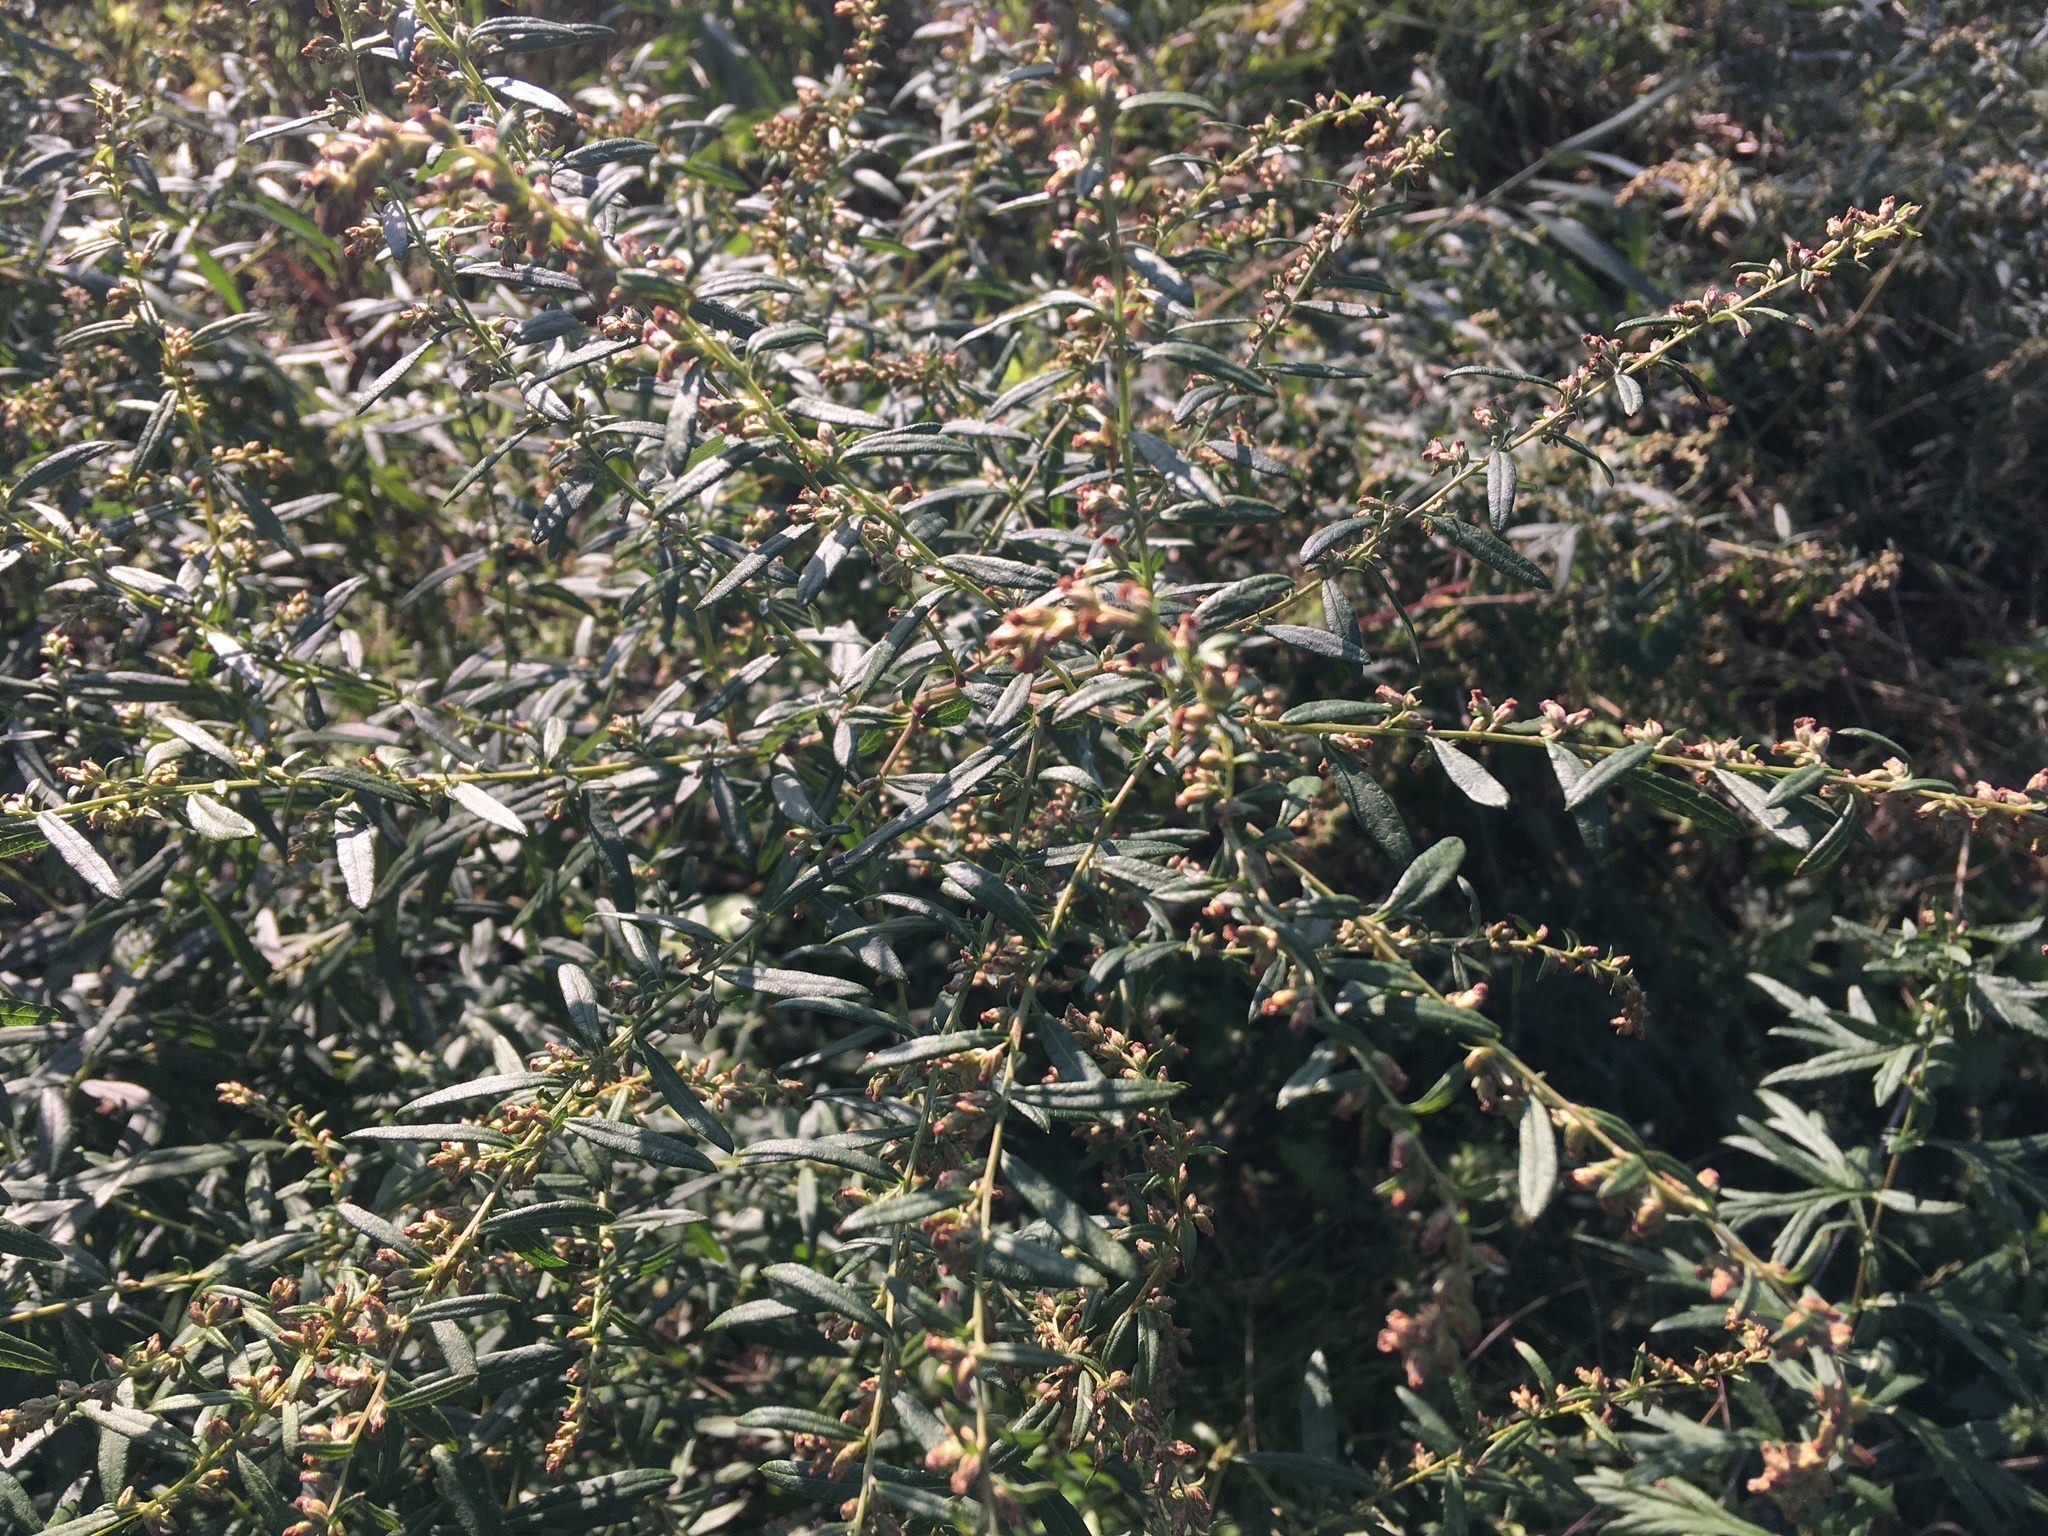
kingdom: Plantae
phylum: Tracheophyta
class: Magnoliopsida
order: Asterales
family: Asteraceae
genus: Artemisia
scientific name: Artemisia vulgaris
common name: Mugwort
